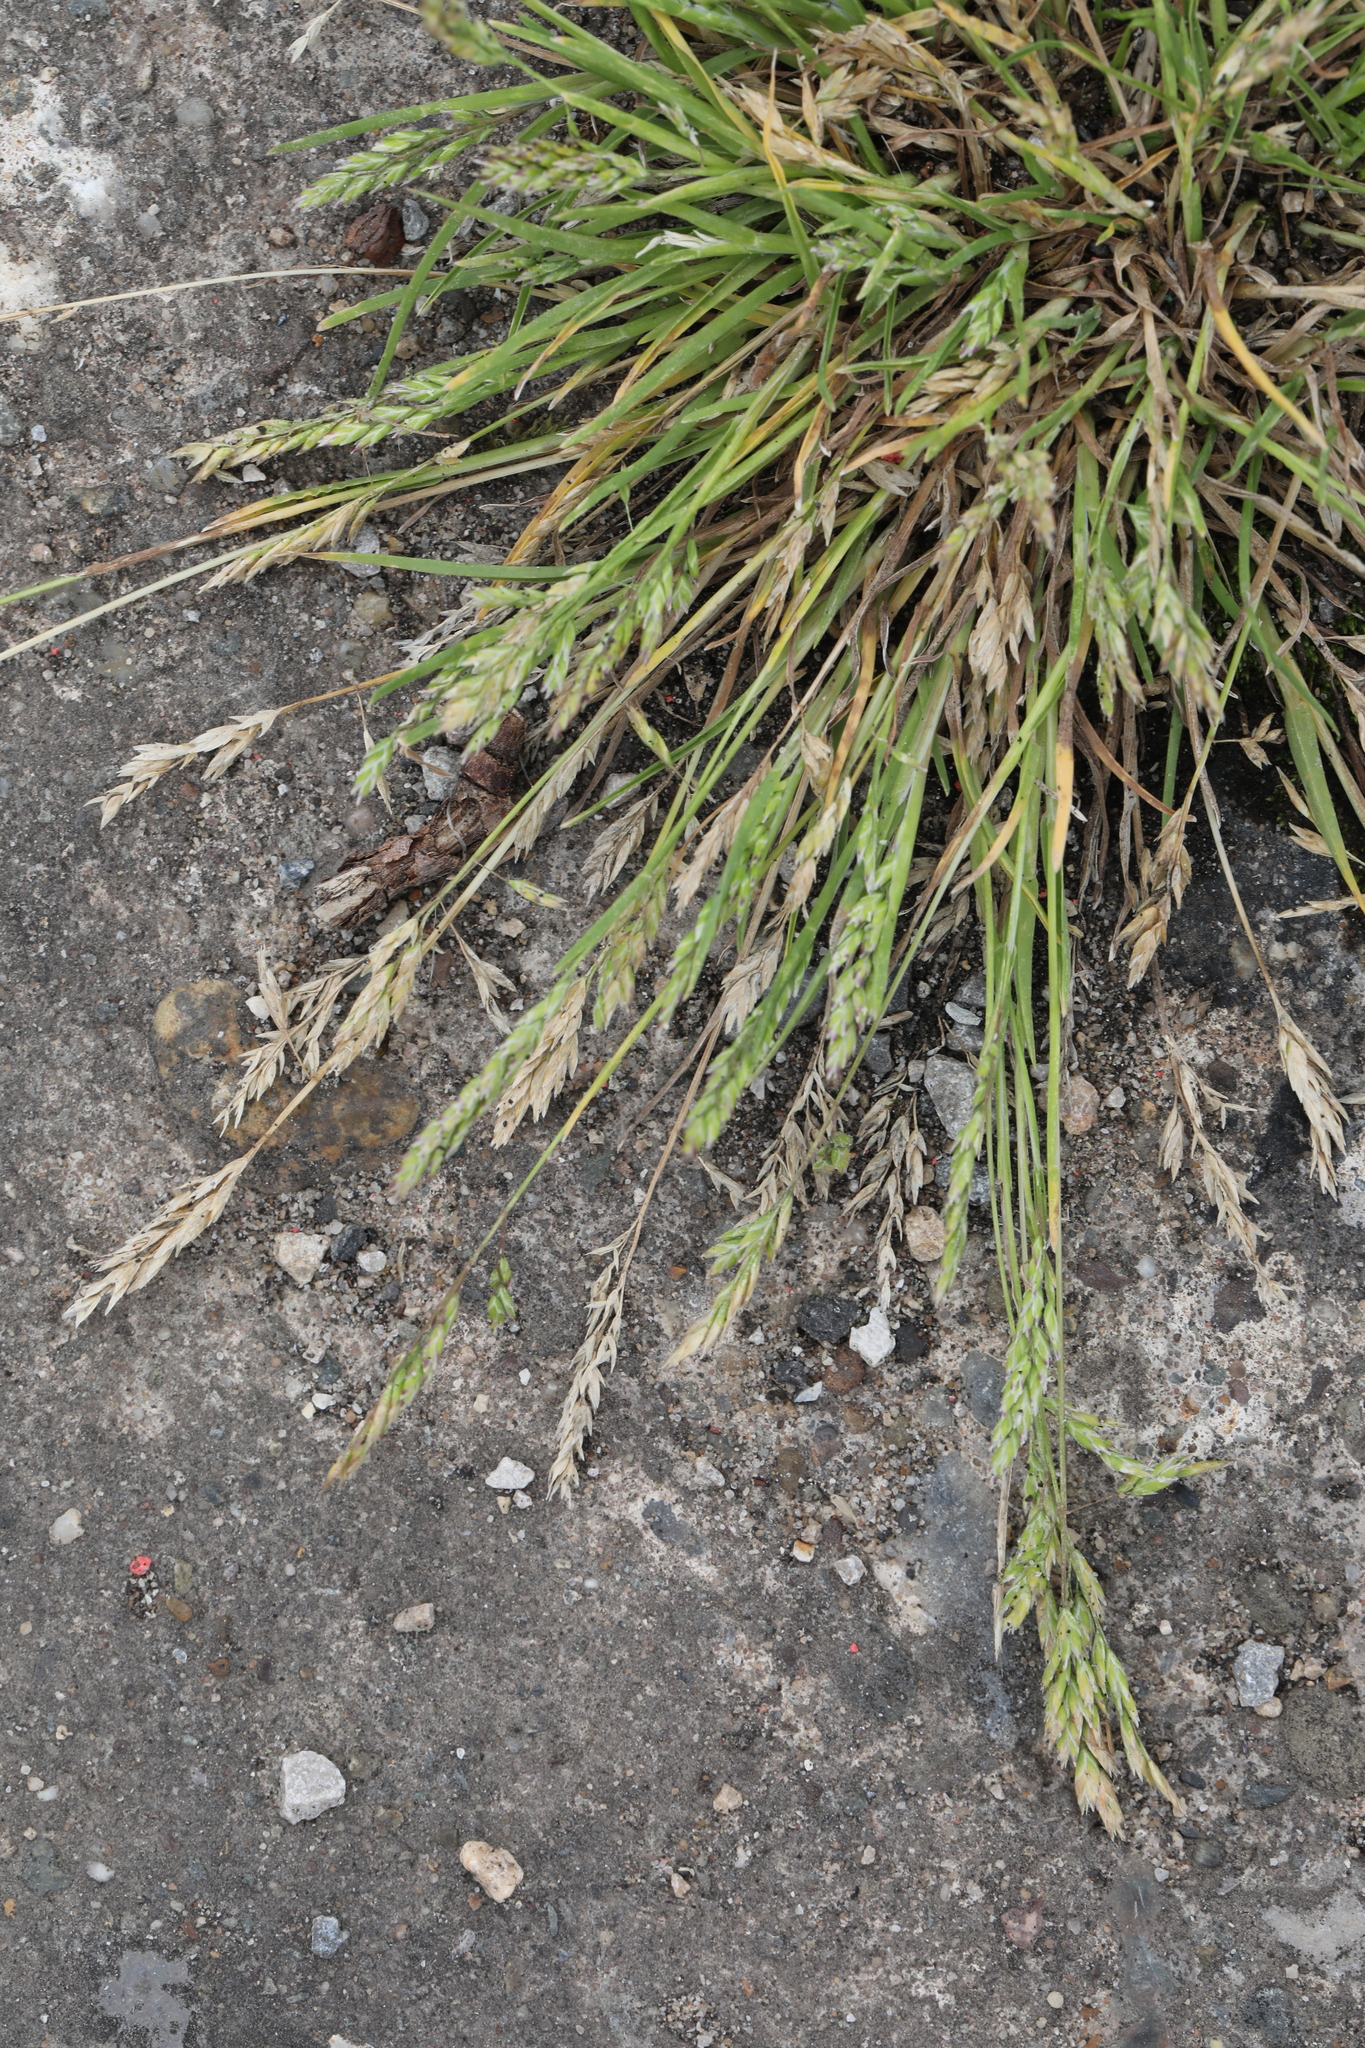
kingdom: Plantae
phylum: Tracheophyta
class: Liliopsida
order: Poales
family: Poaceae
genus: Poa
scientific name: Poa annua
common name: Annual bluegrass
